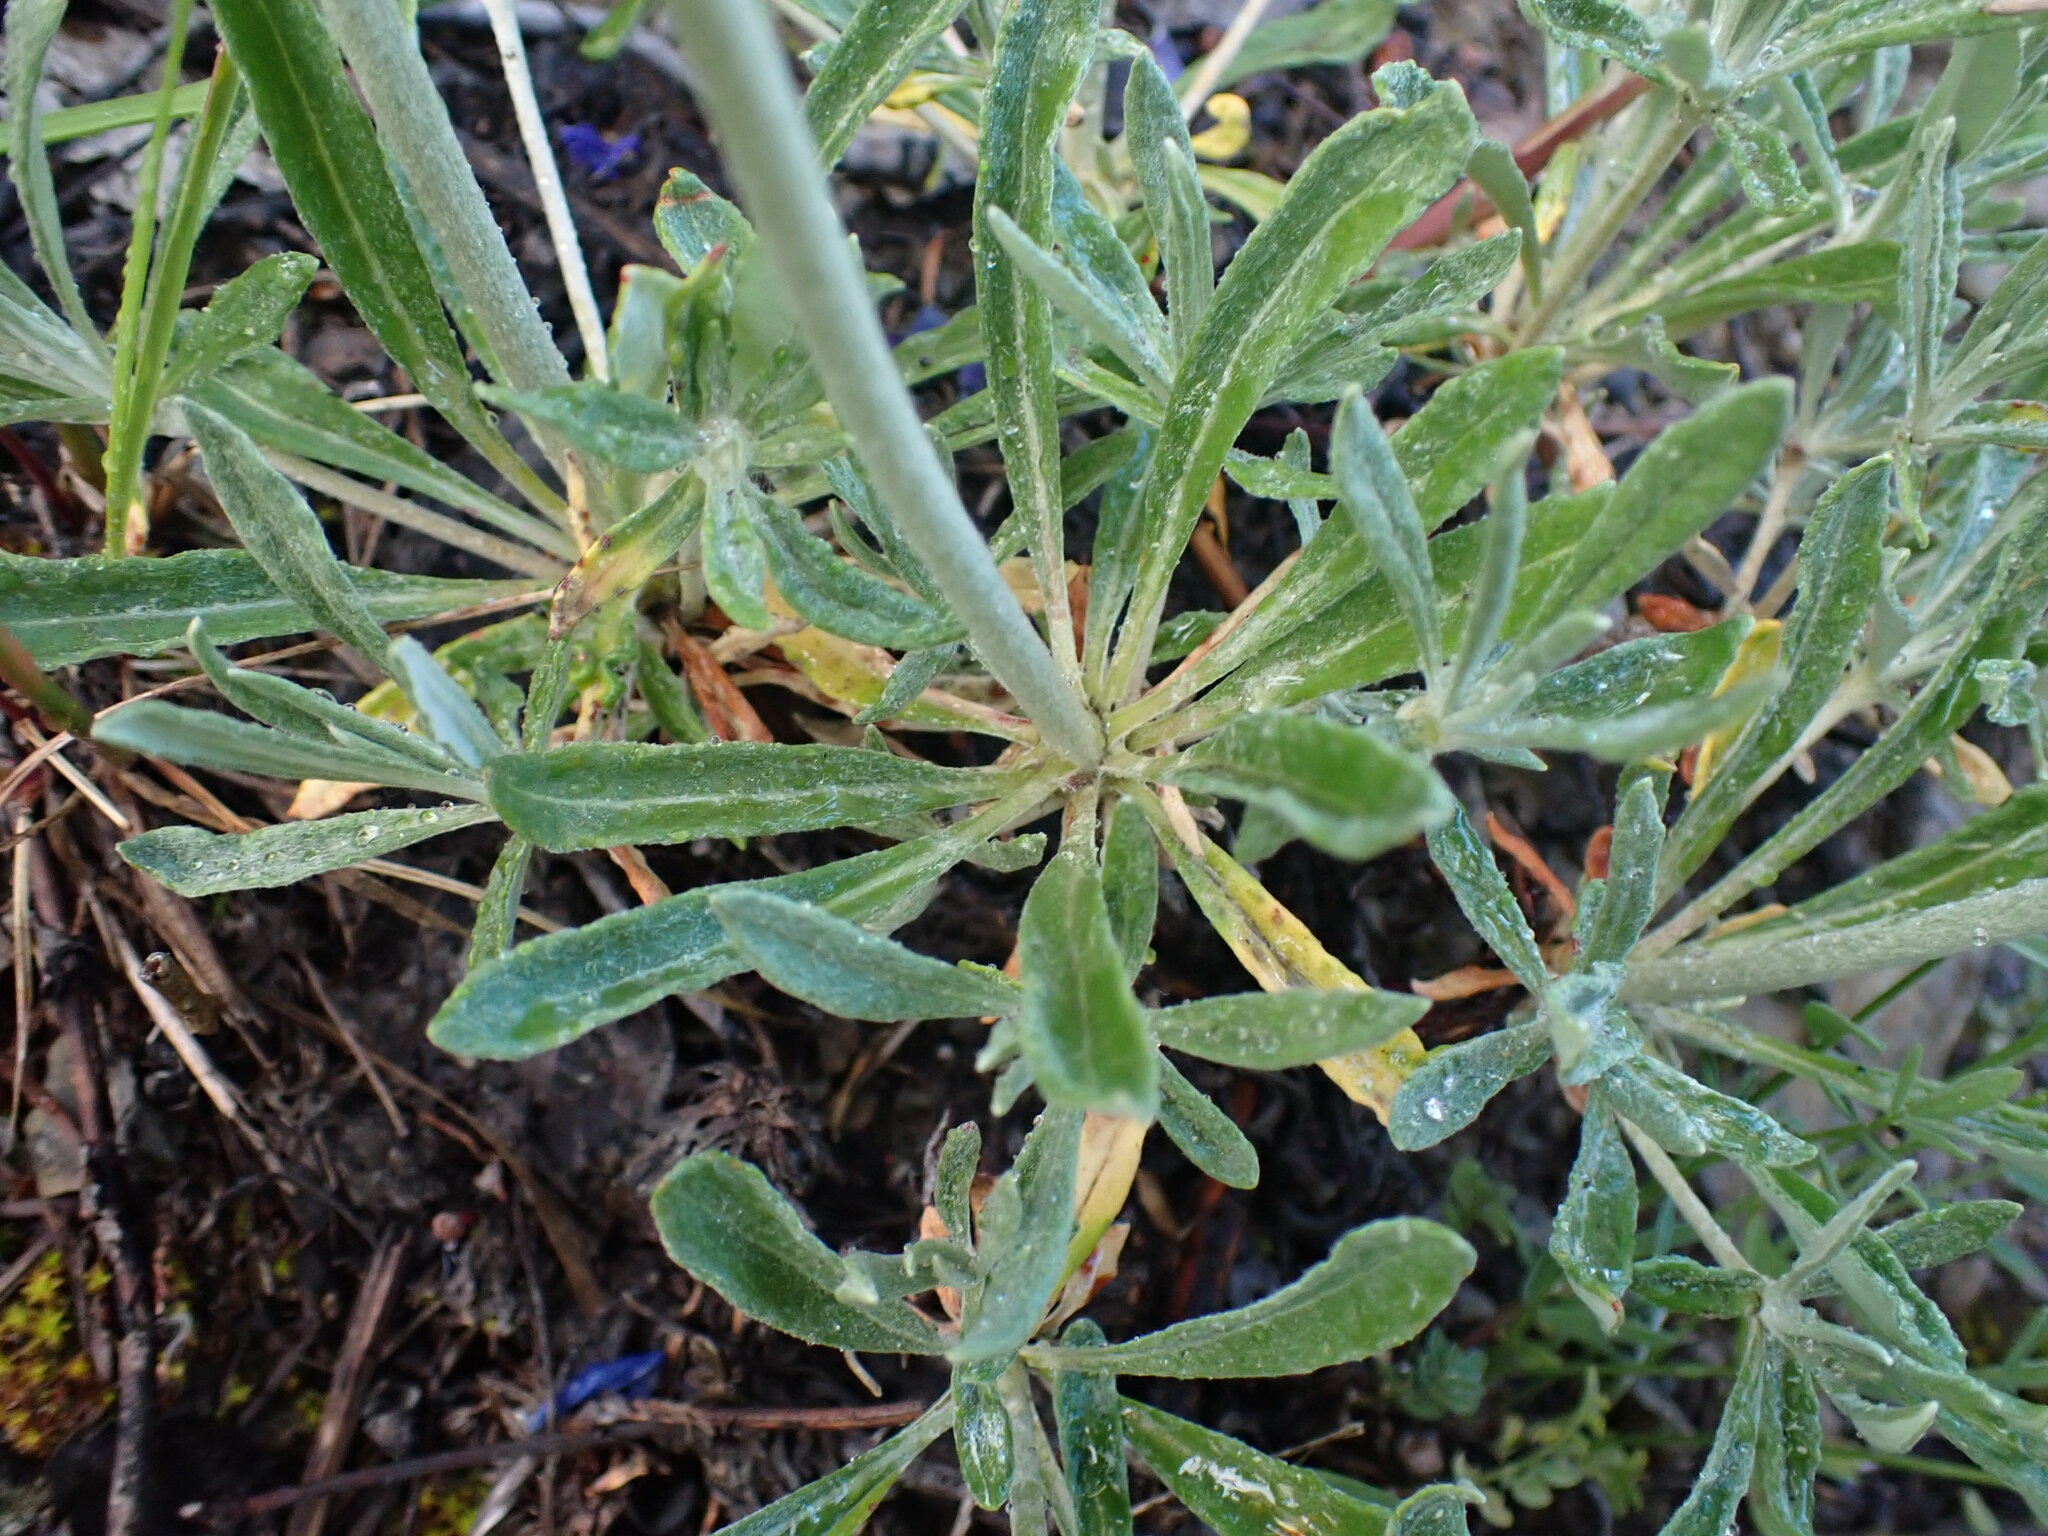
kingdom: Plantae
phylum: Tracheophyta
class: Magnoliopsida
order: Caryophyllales
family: Polygonaceae
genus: Eriogonum
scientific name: Eriogonum heracleoides
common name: Wyeth's buckwheat
